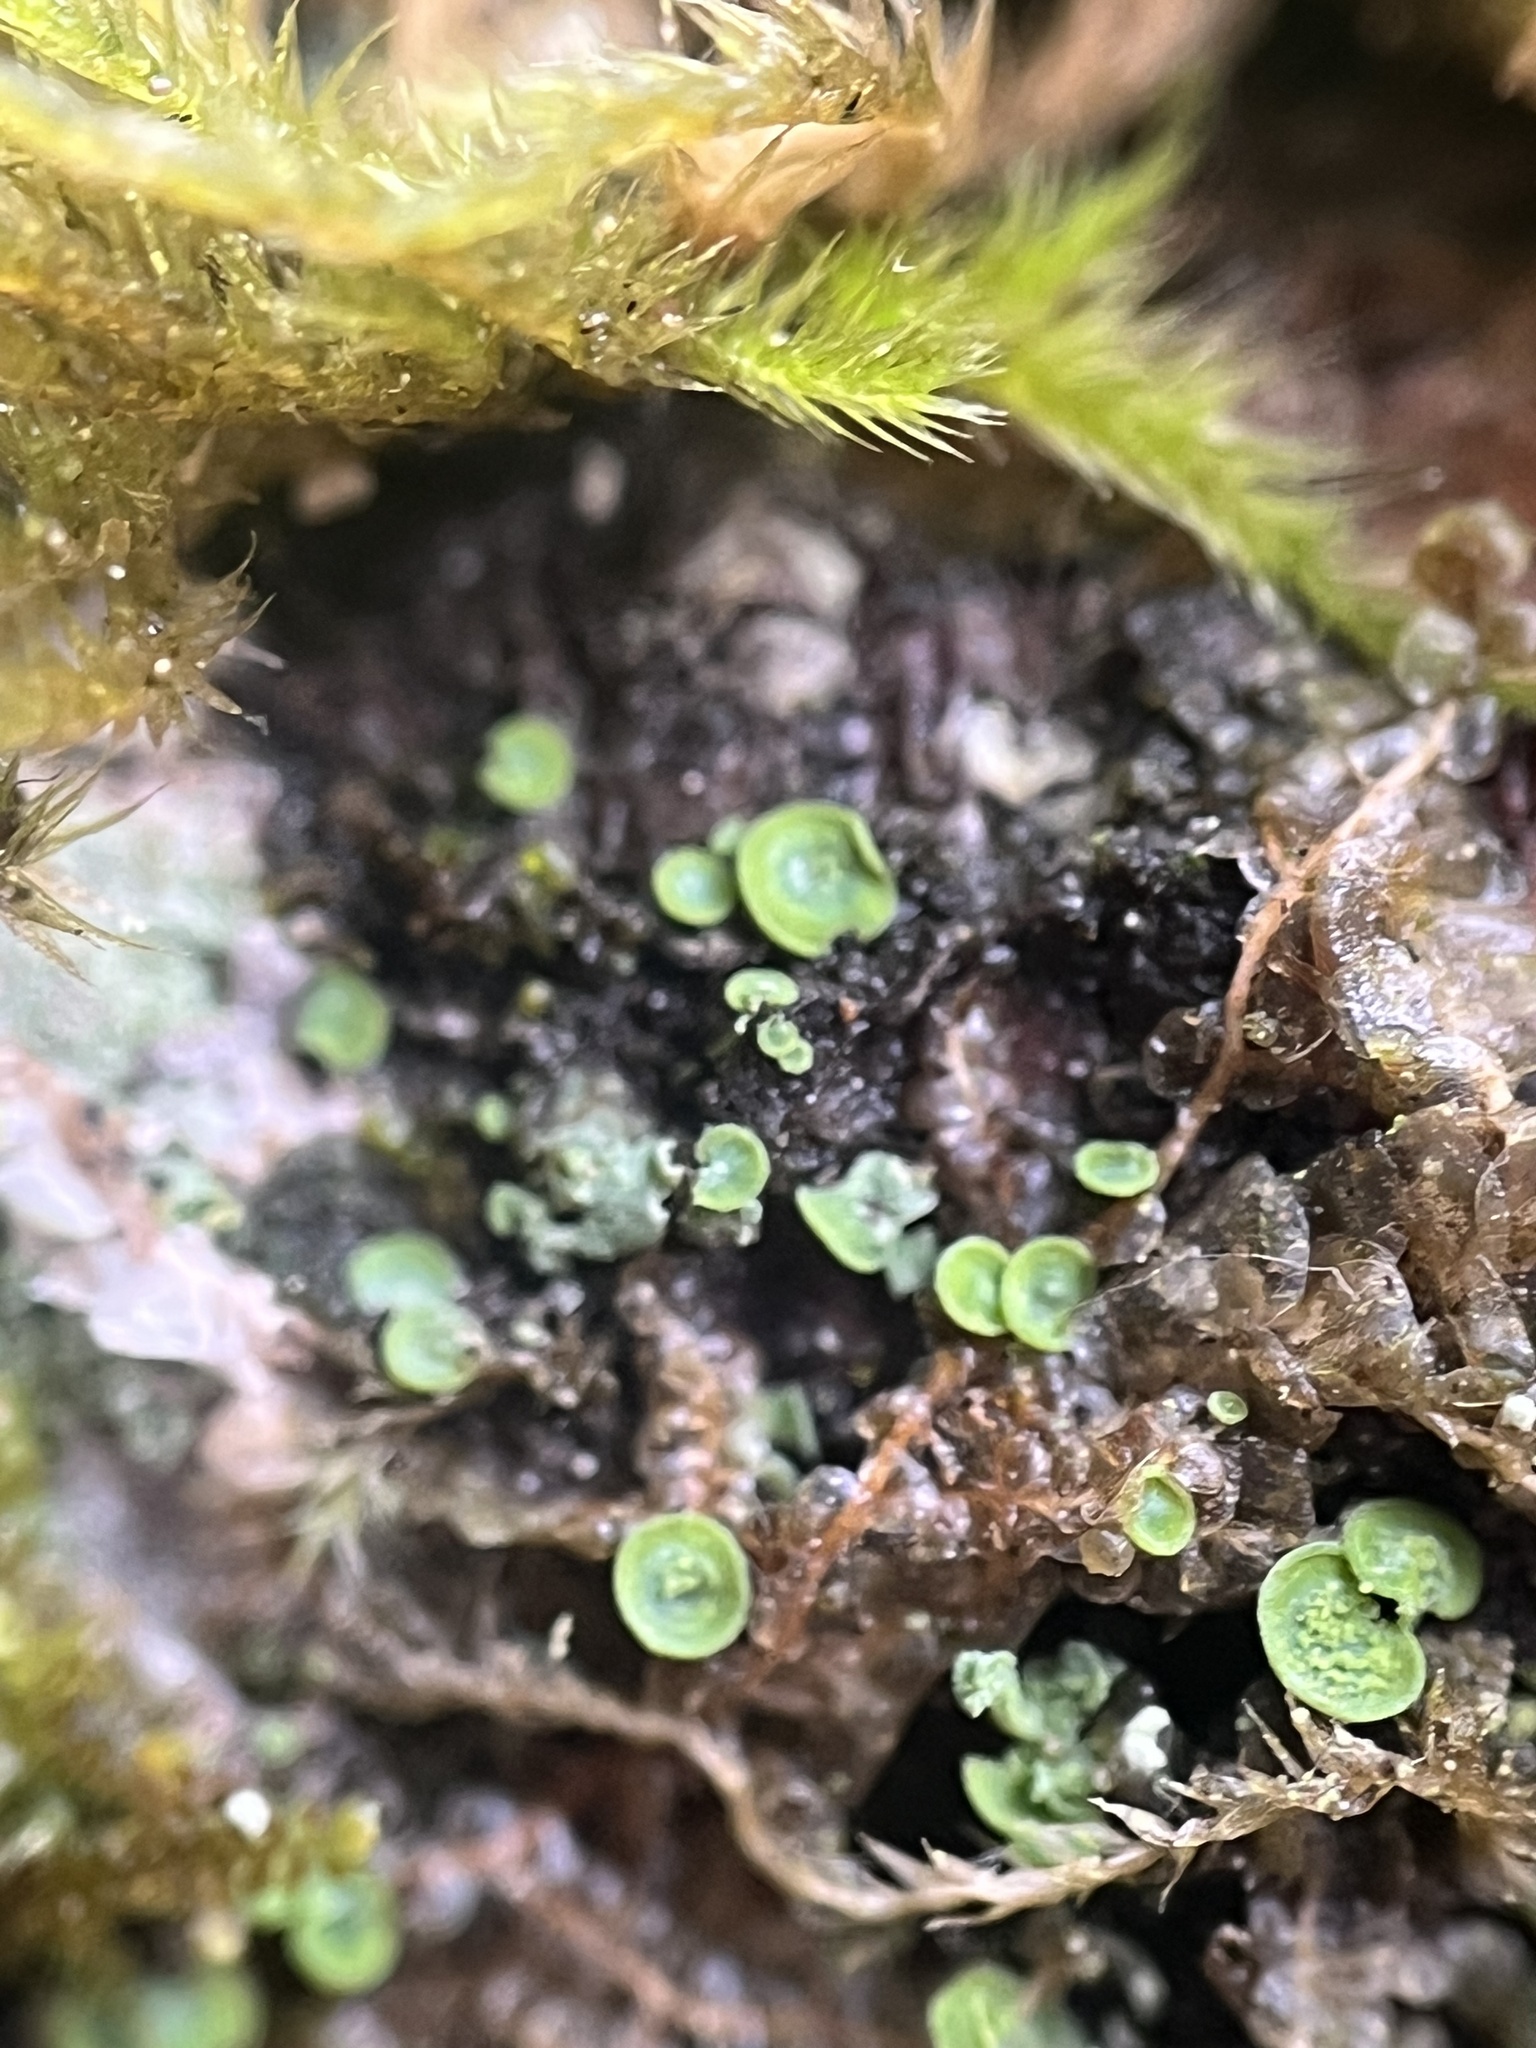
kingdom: Fungi
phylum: Ascomycota
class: Eurotiomycetes
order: Verrucariales
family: Verrucariaceae
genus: Normandina
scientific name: Normandina pulchella
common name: Elf ears lichen
